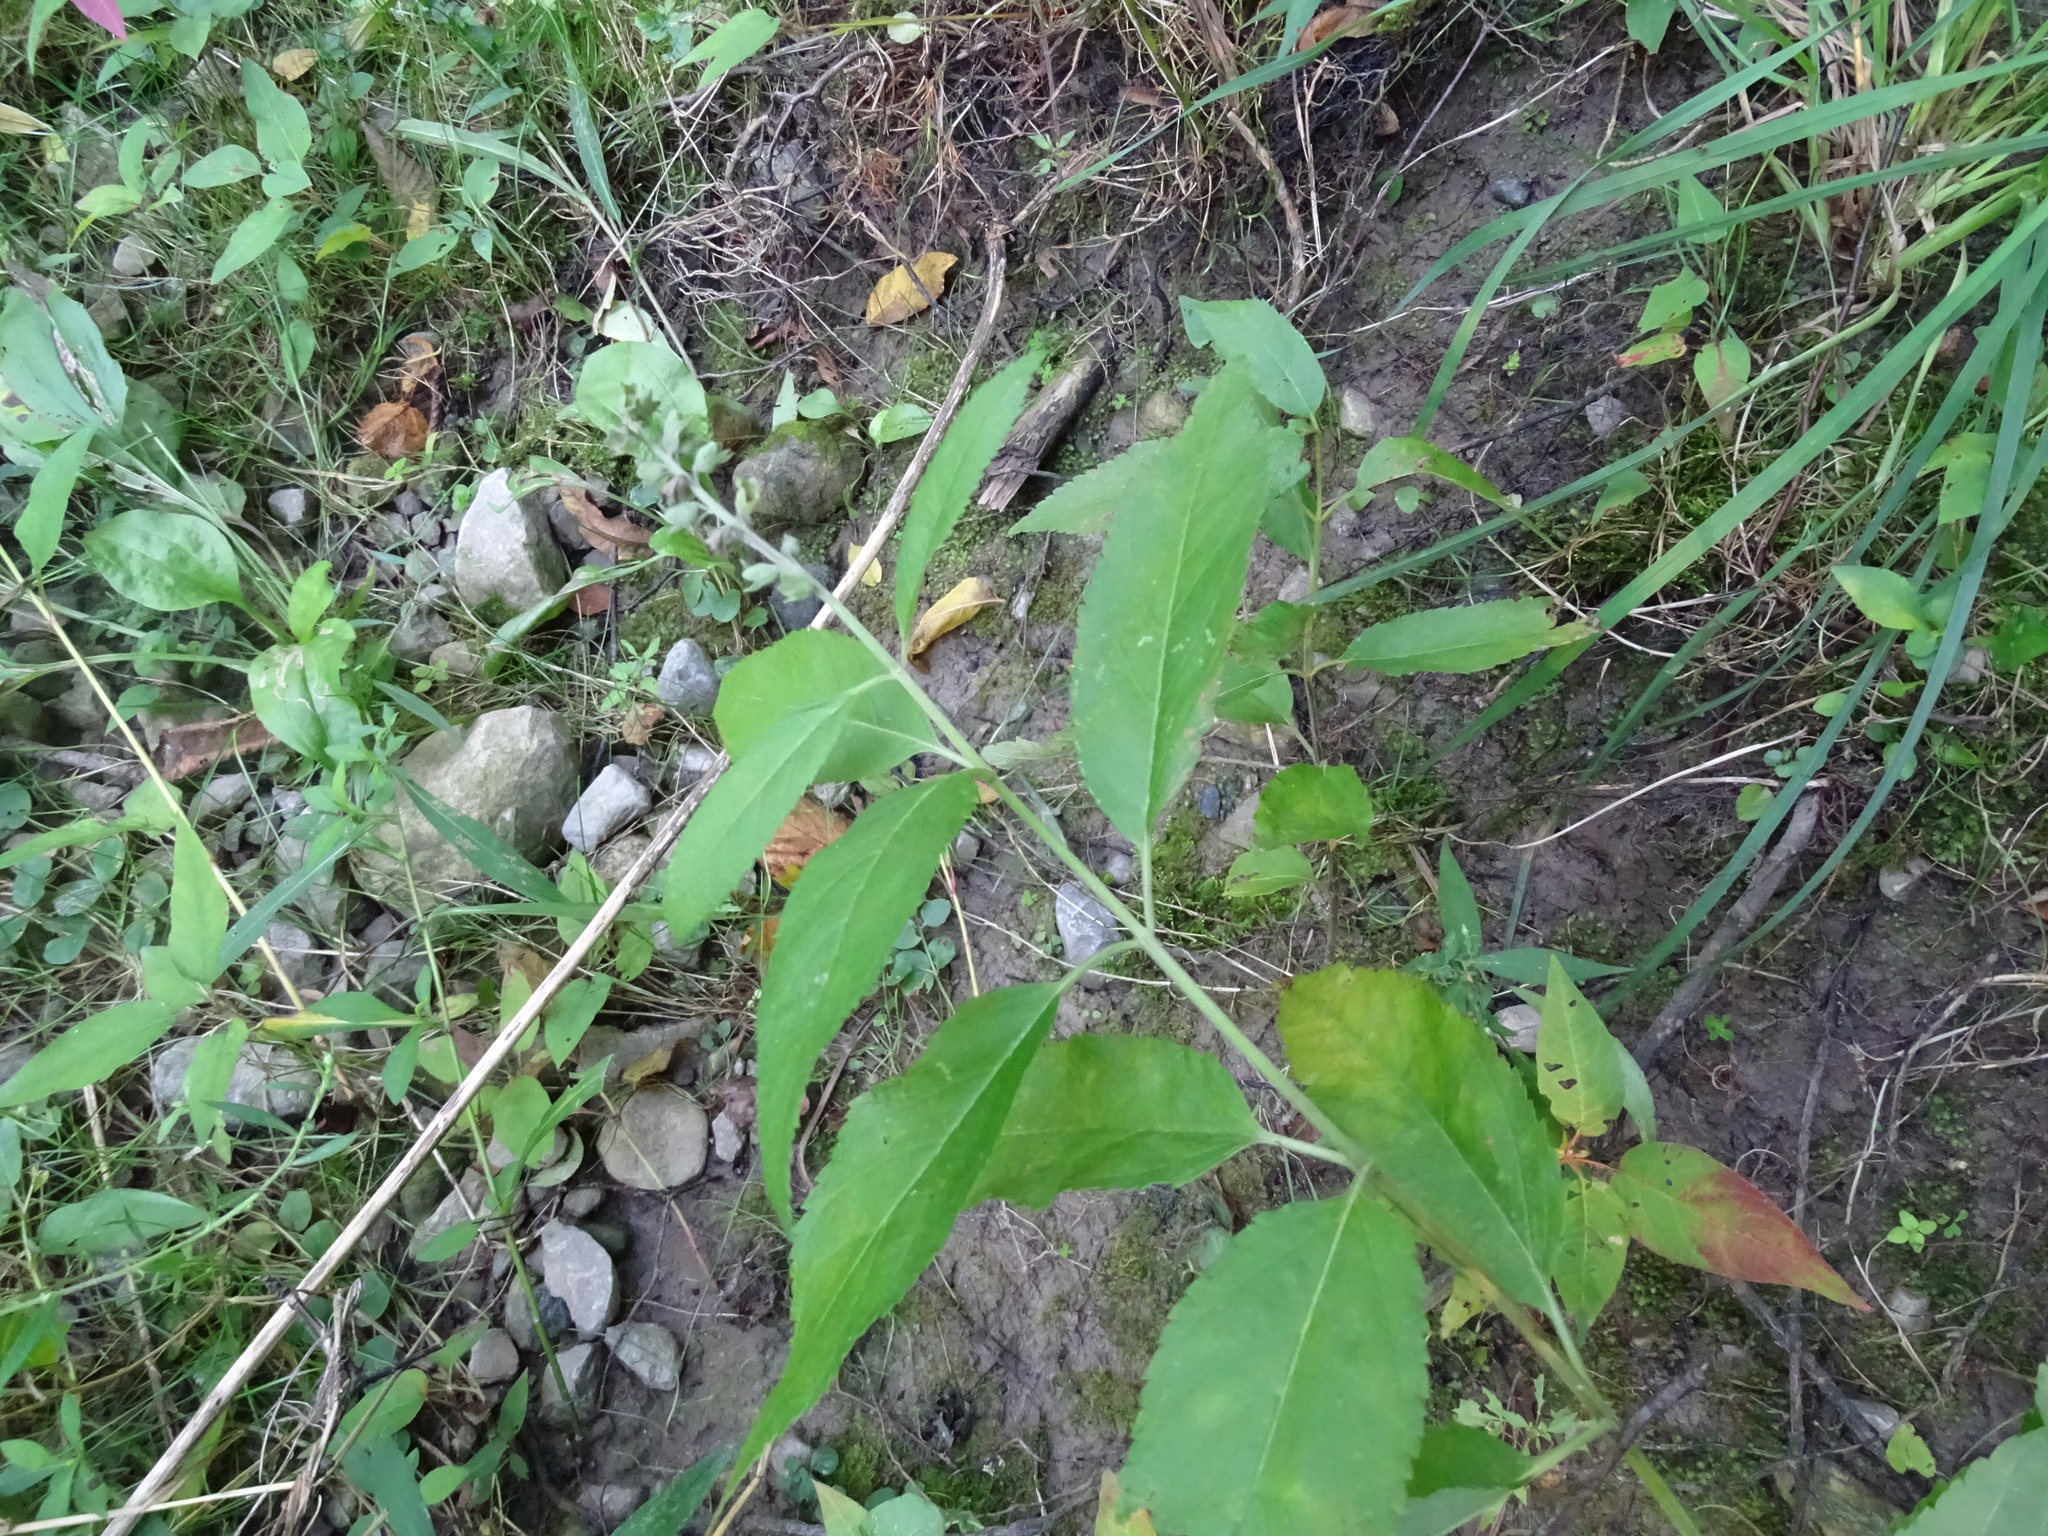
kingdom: Plantae
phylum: Tracheophyta
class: Magnoliopsida
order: Lamiales
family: Lamiaceae
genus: Teucrium
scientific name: Teucrium canadense
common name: American germander
